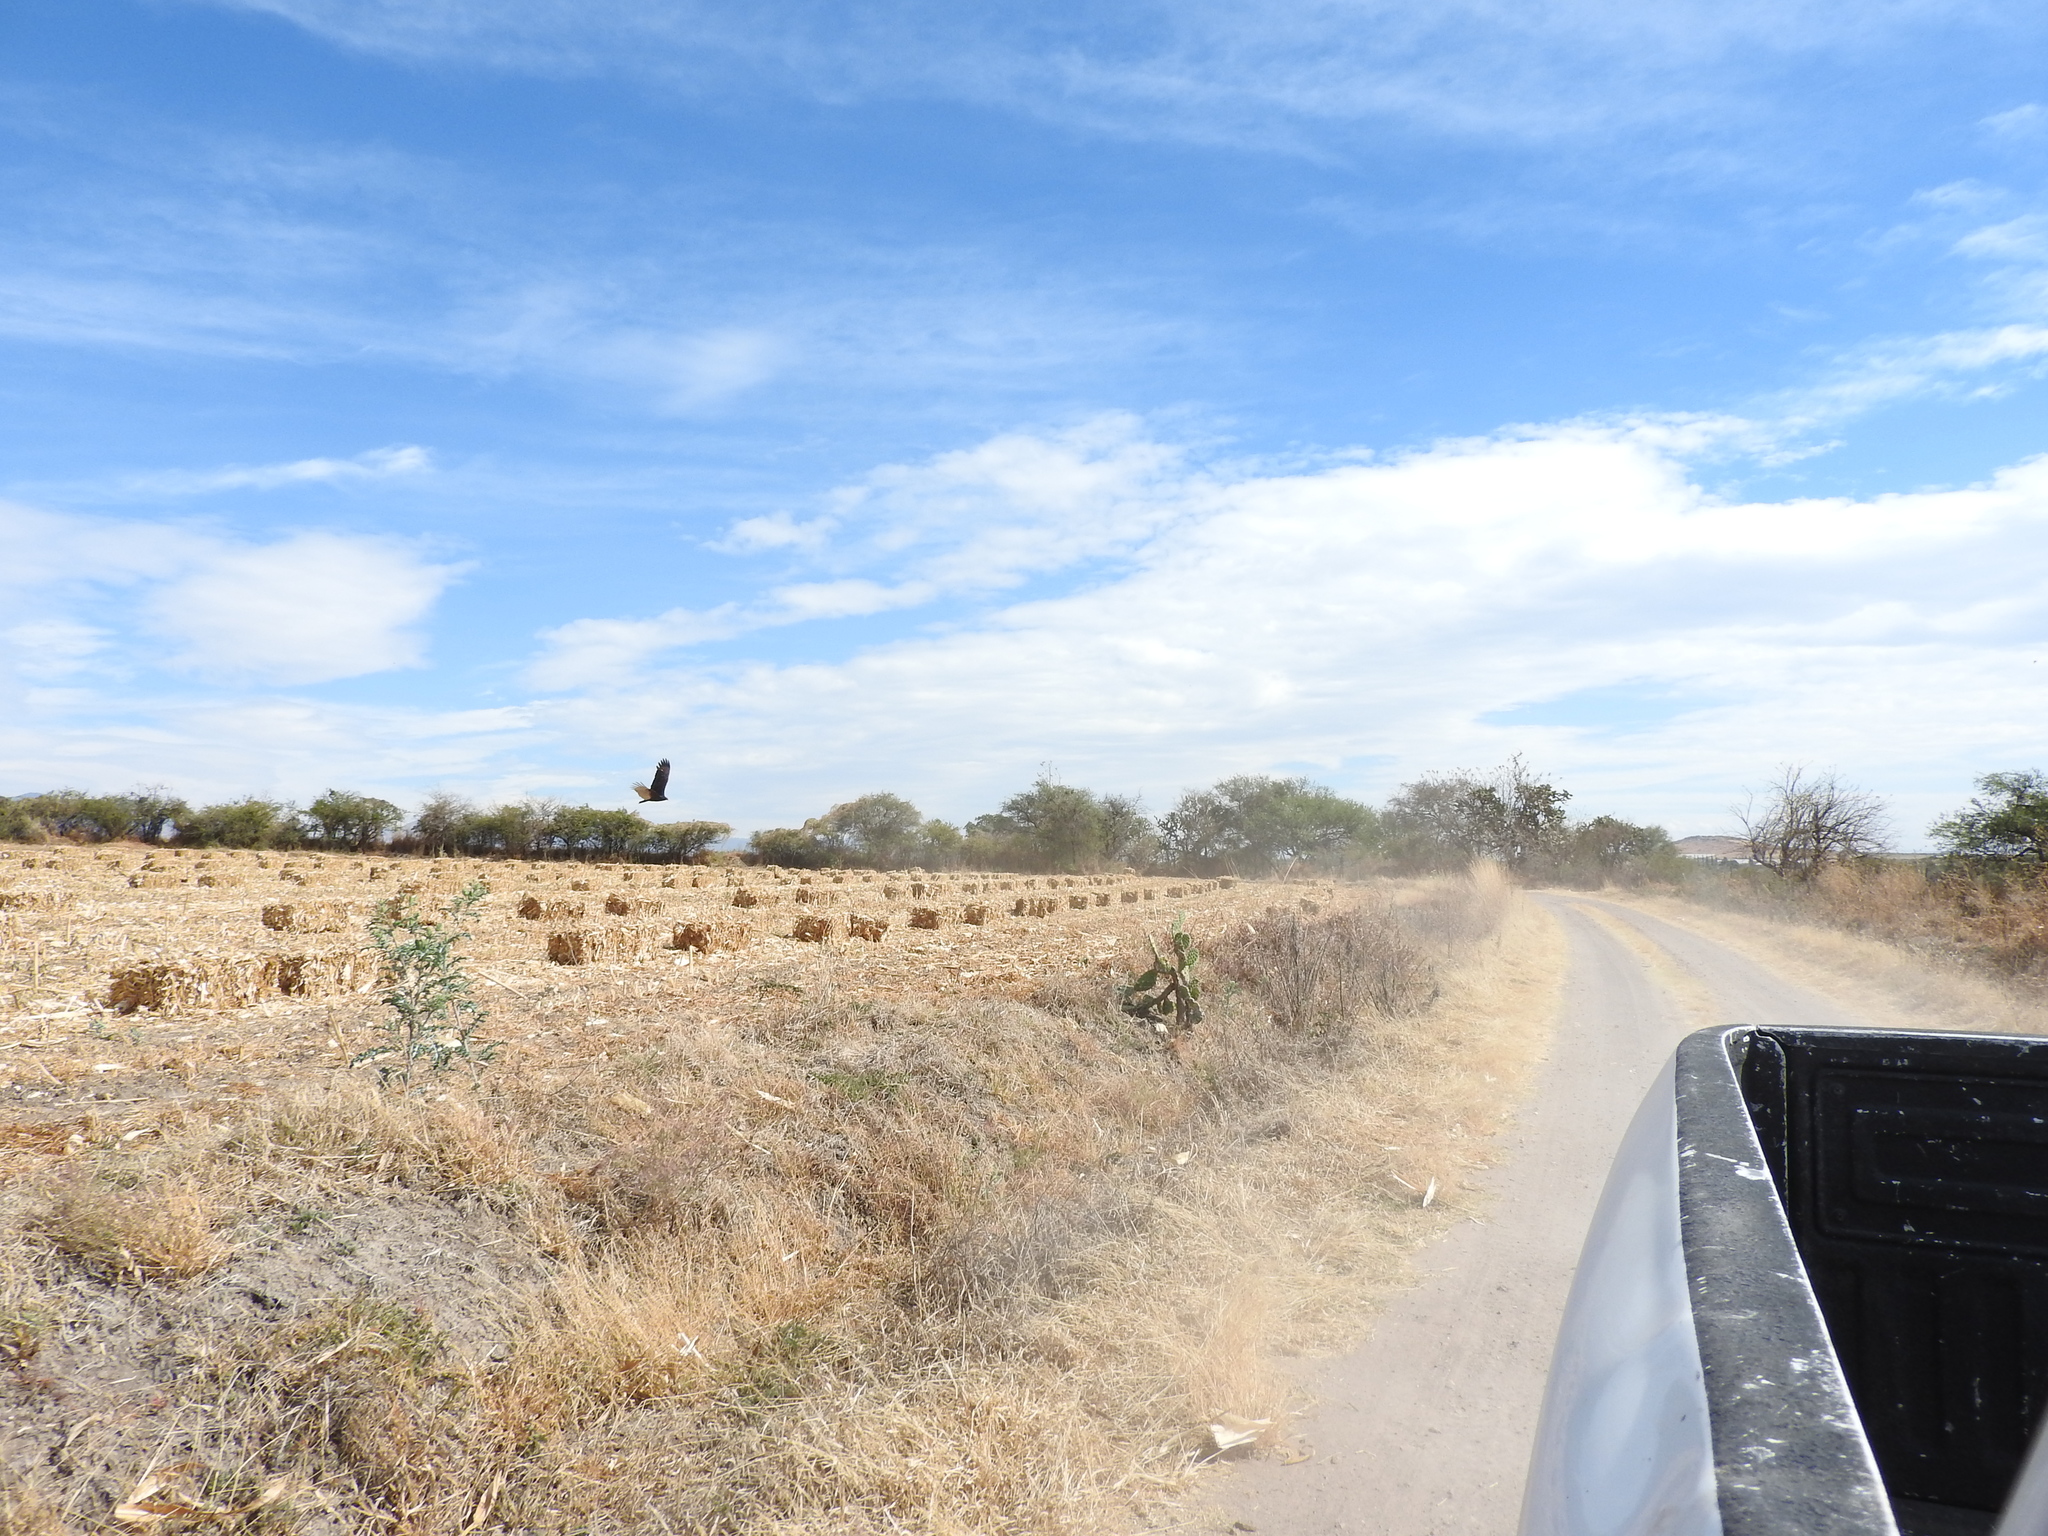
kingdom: Animalia
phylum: Chordata
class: Aves
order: Accipitriformes
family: Cathartidae
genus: Cathartes
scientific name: Cathartes aura
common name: Turkey vulture
